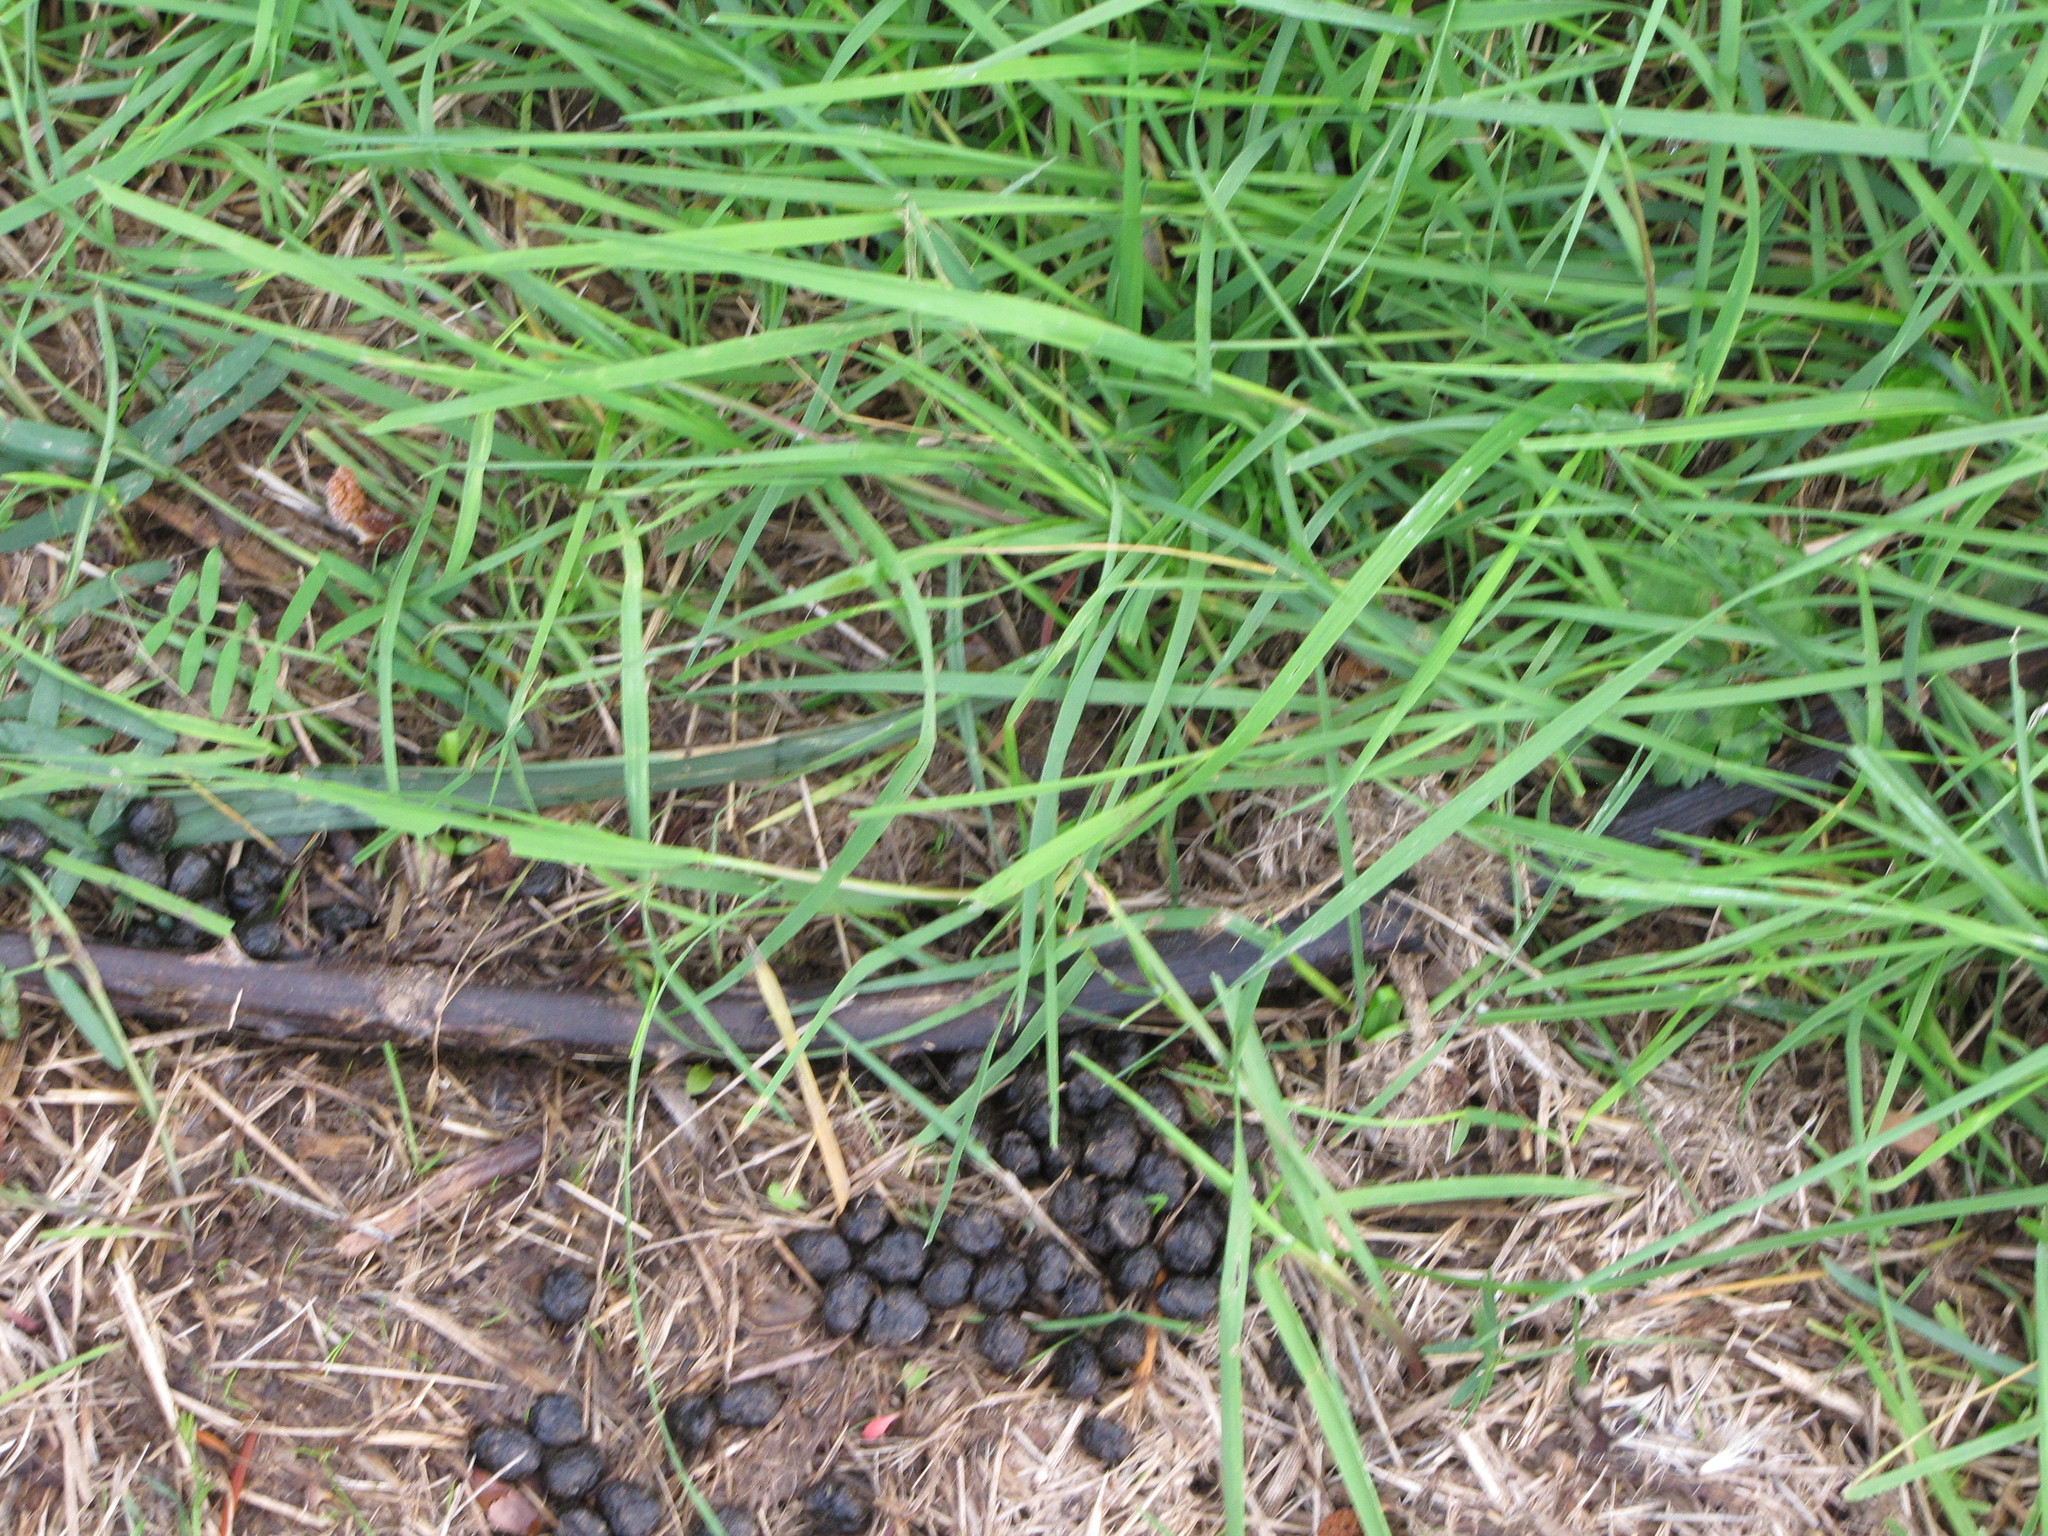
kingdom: Animalia
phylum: Chordata
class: Mammalia
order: Artiodactyla
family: Cervidae
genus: Odocoileus
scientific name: Odocoileus hemionus
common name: Mule deer
